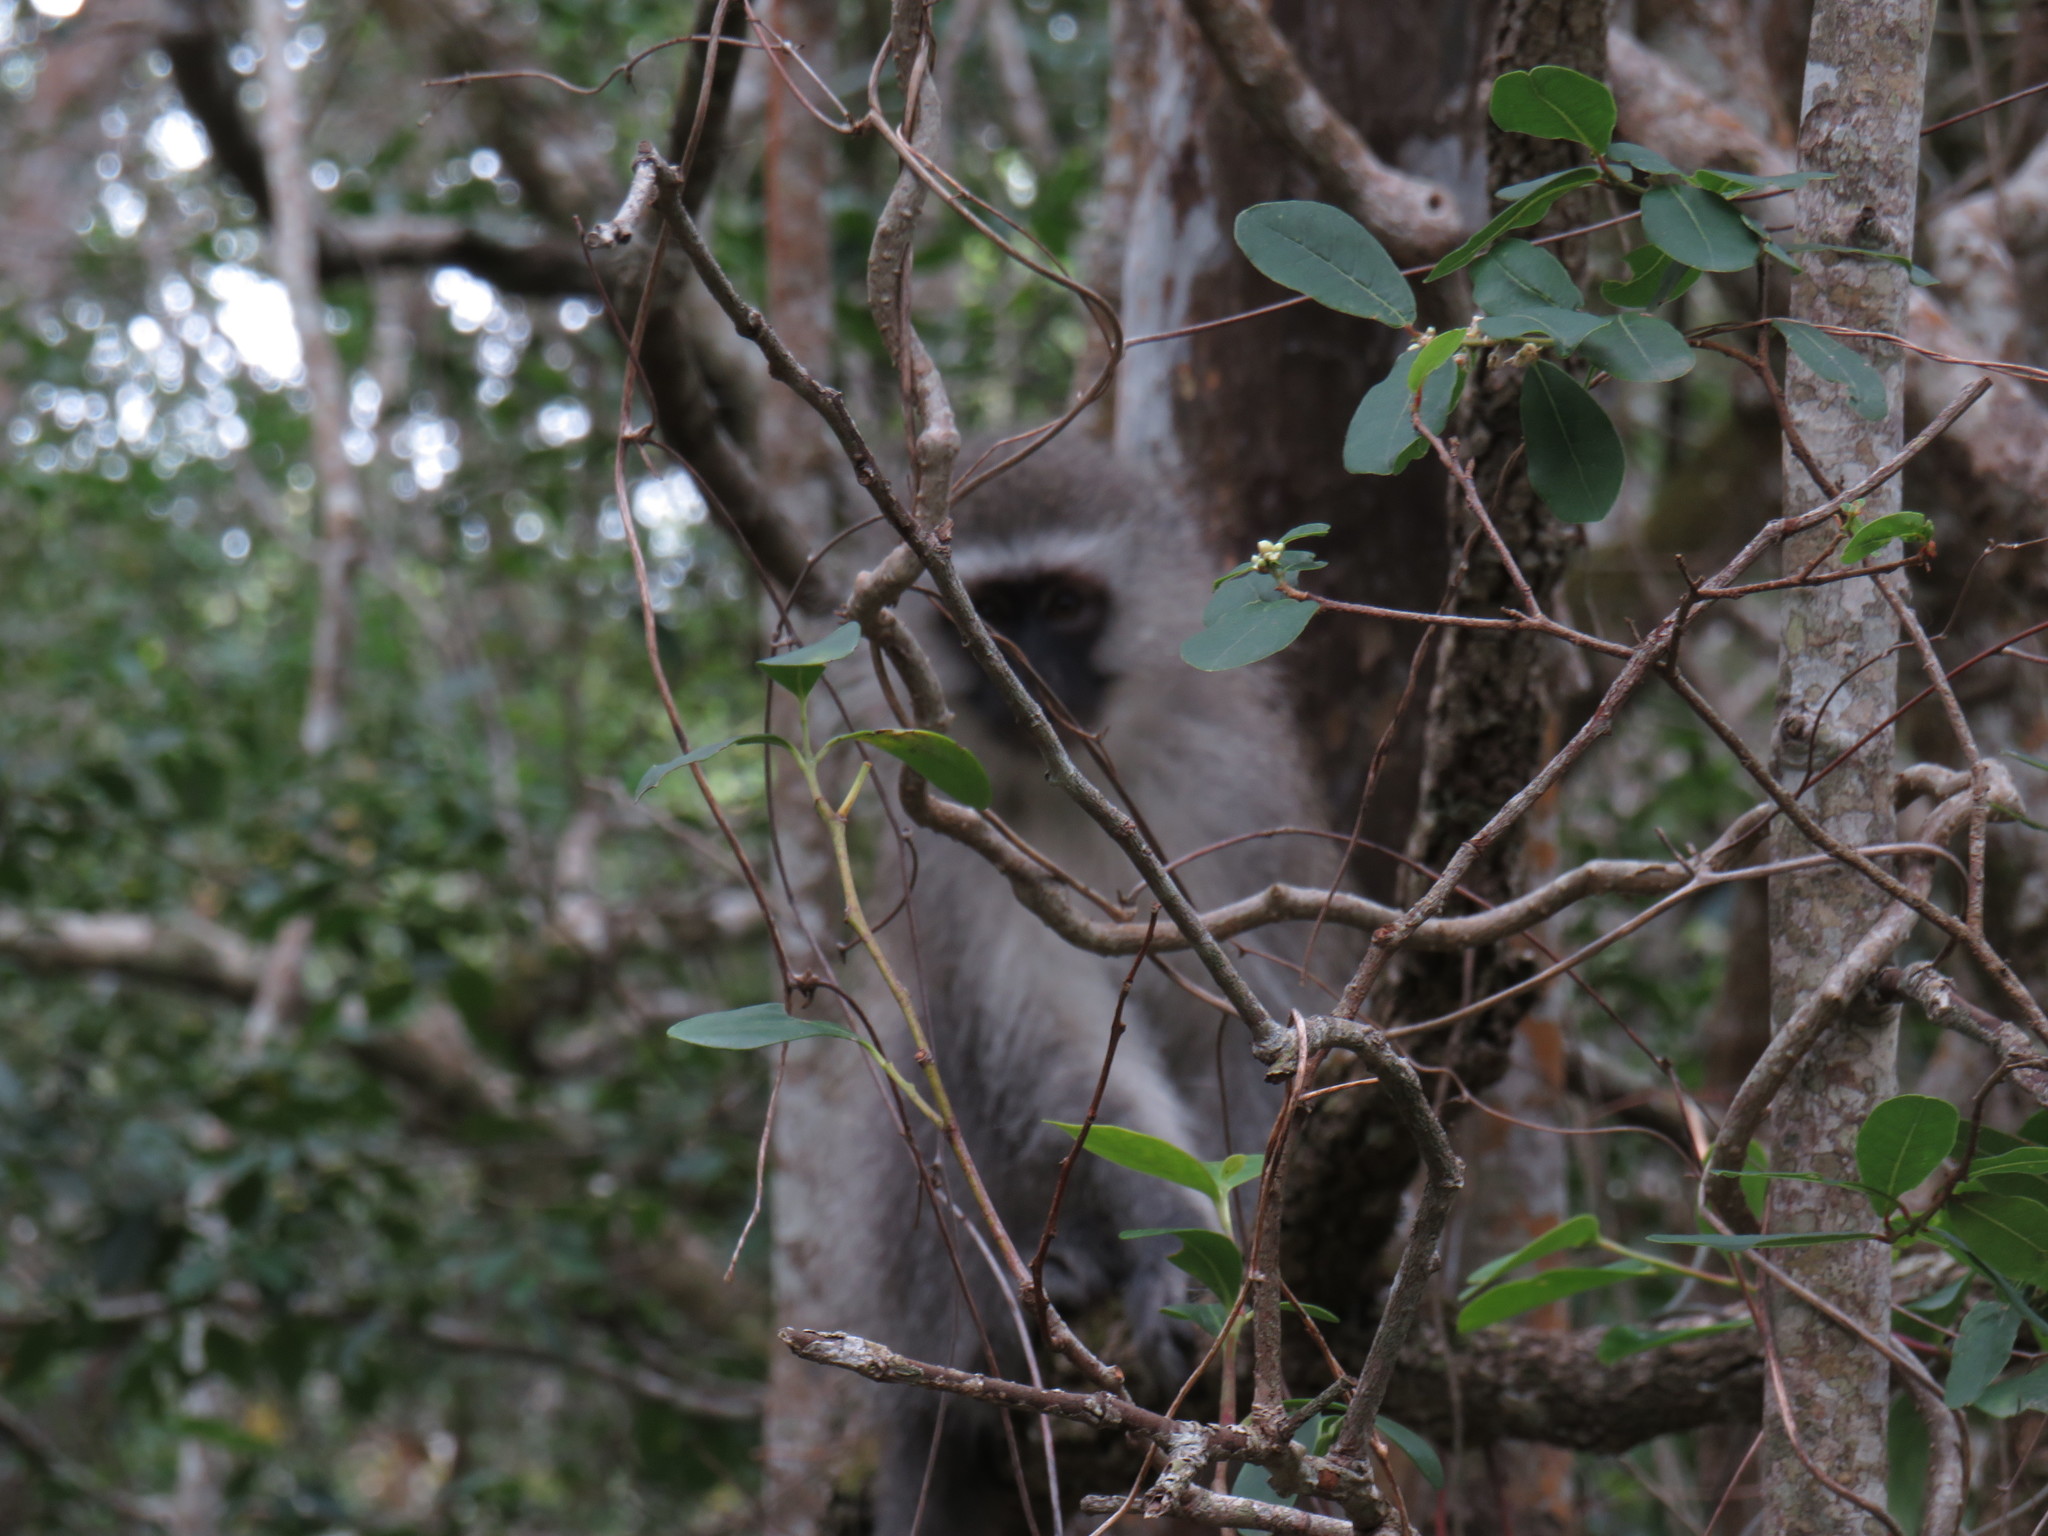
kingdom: Animalia
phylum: Chordata
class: Mammalia
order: Primates
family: Cercopithecidae
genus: Chlorocebus
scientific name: Chlorocebus pygerythrus
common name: Vervet monkey
